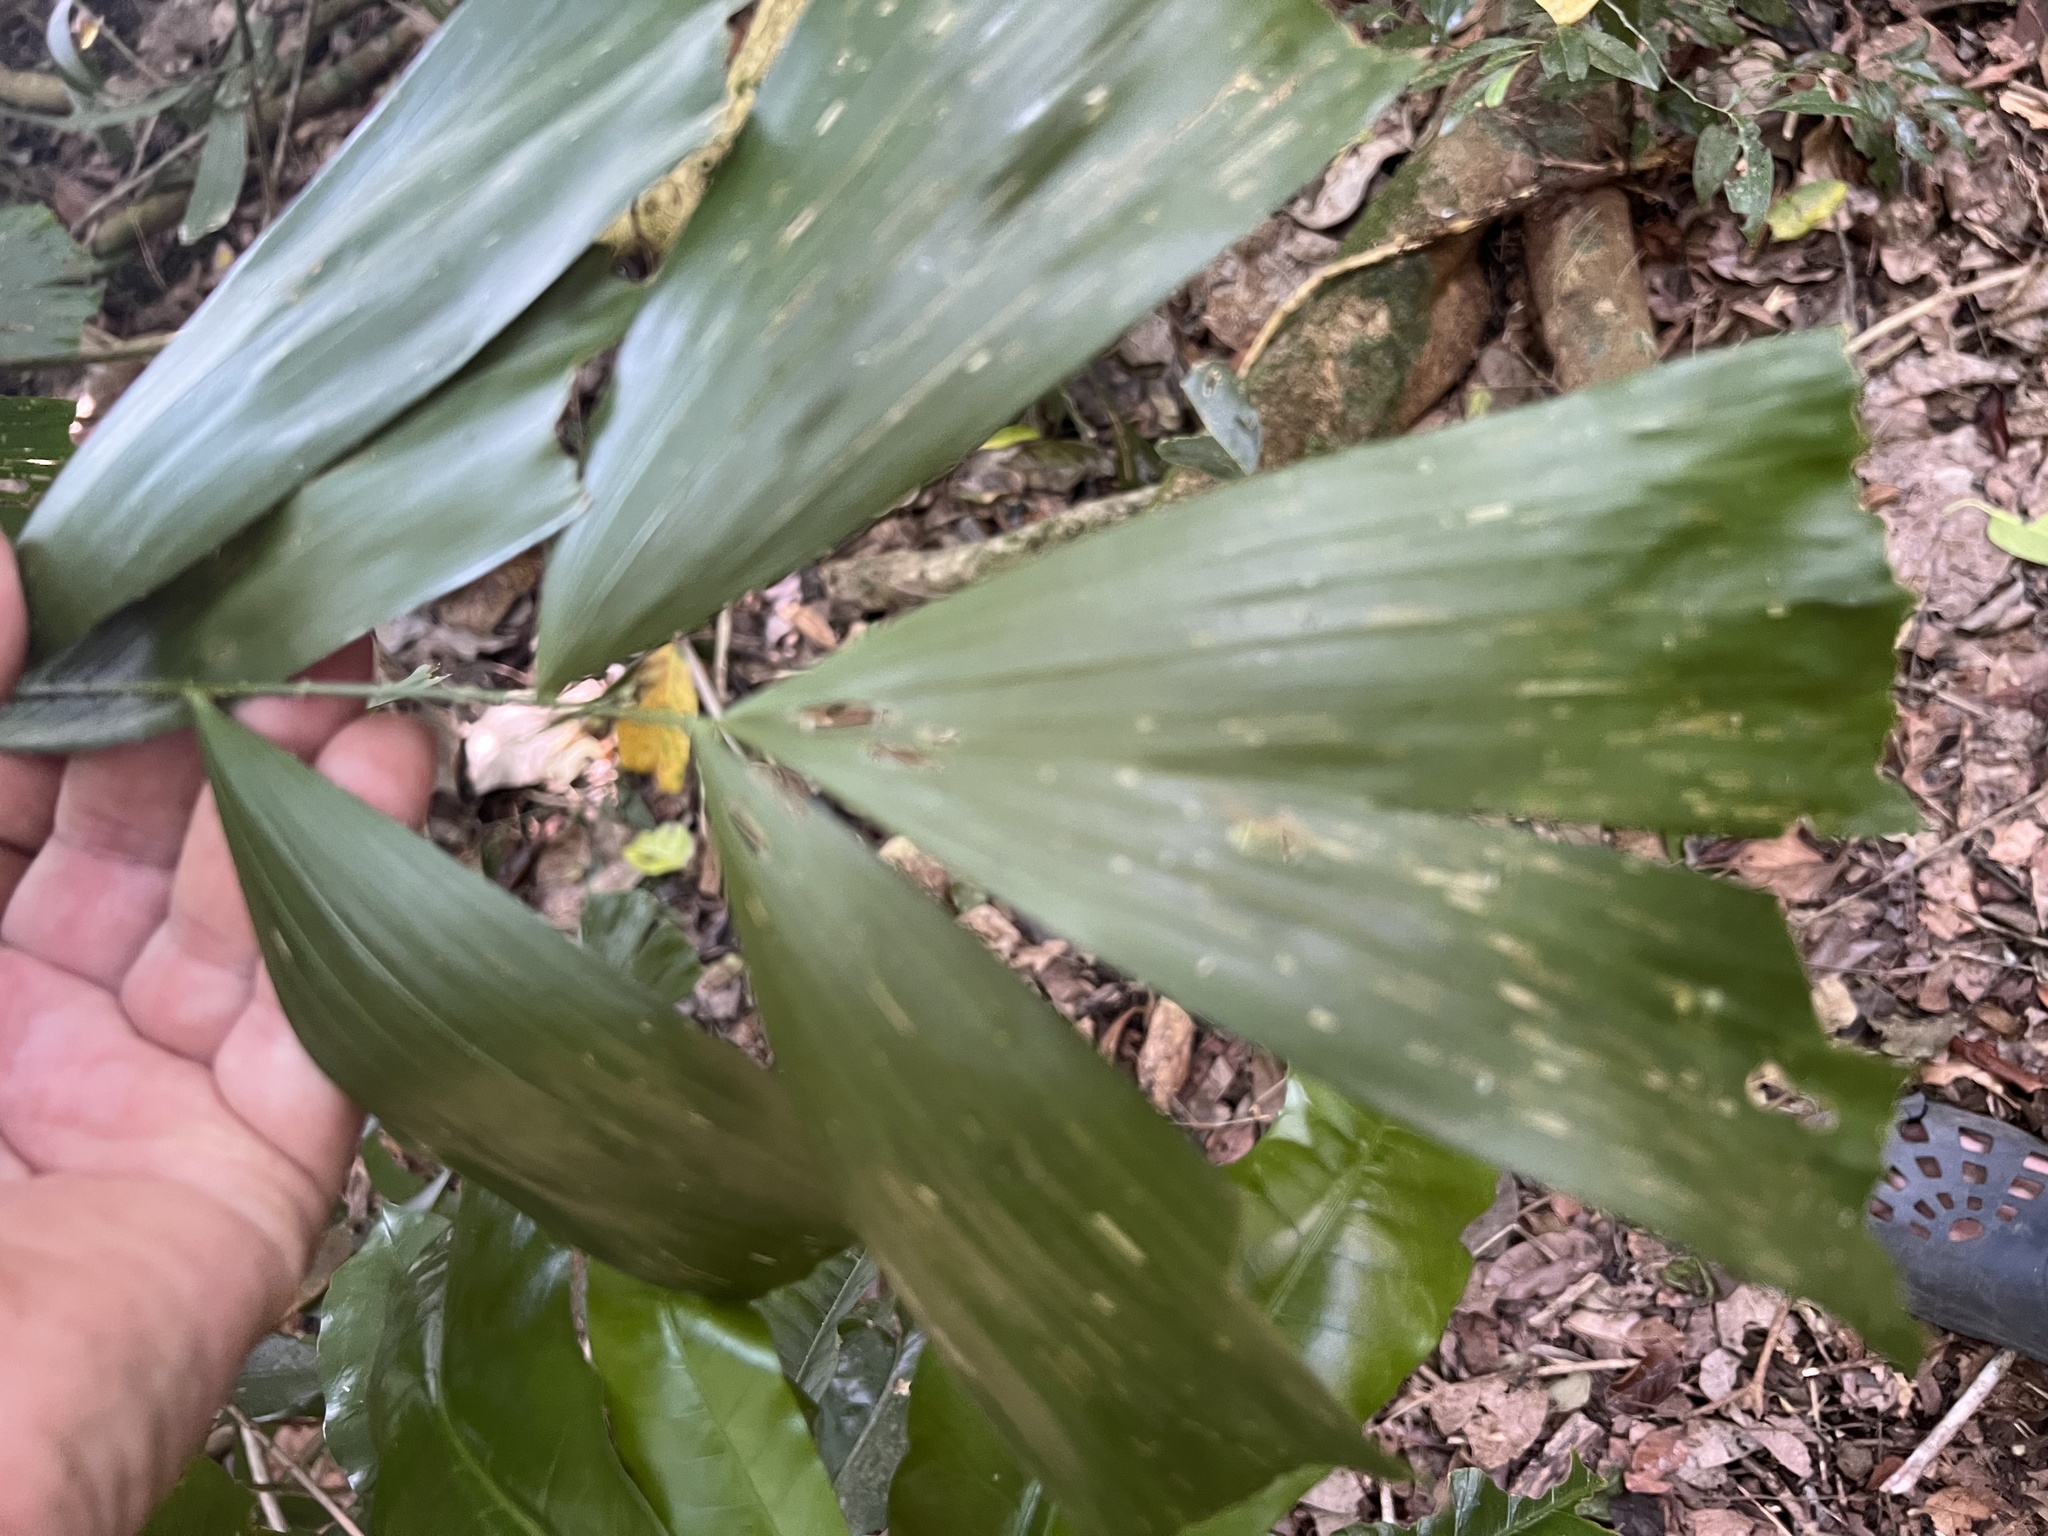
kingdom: Plantae
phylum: Tracheophyta
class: Liliopsida
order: Arecales
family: Arecaceae
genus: Calamus
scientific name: Calamus caryotoides
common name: Fishtail lawyer cane
